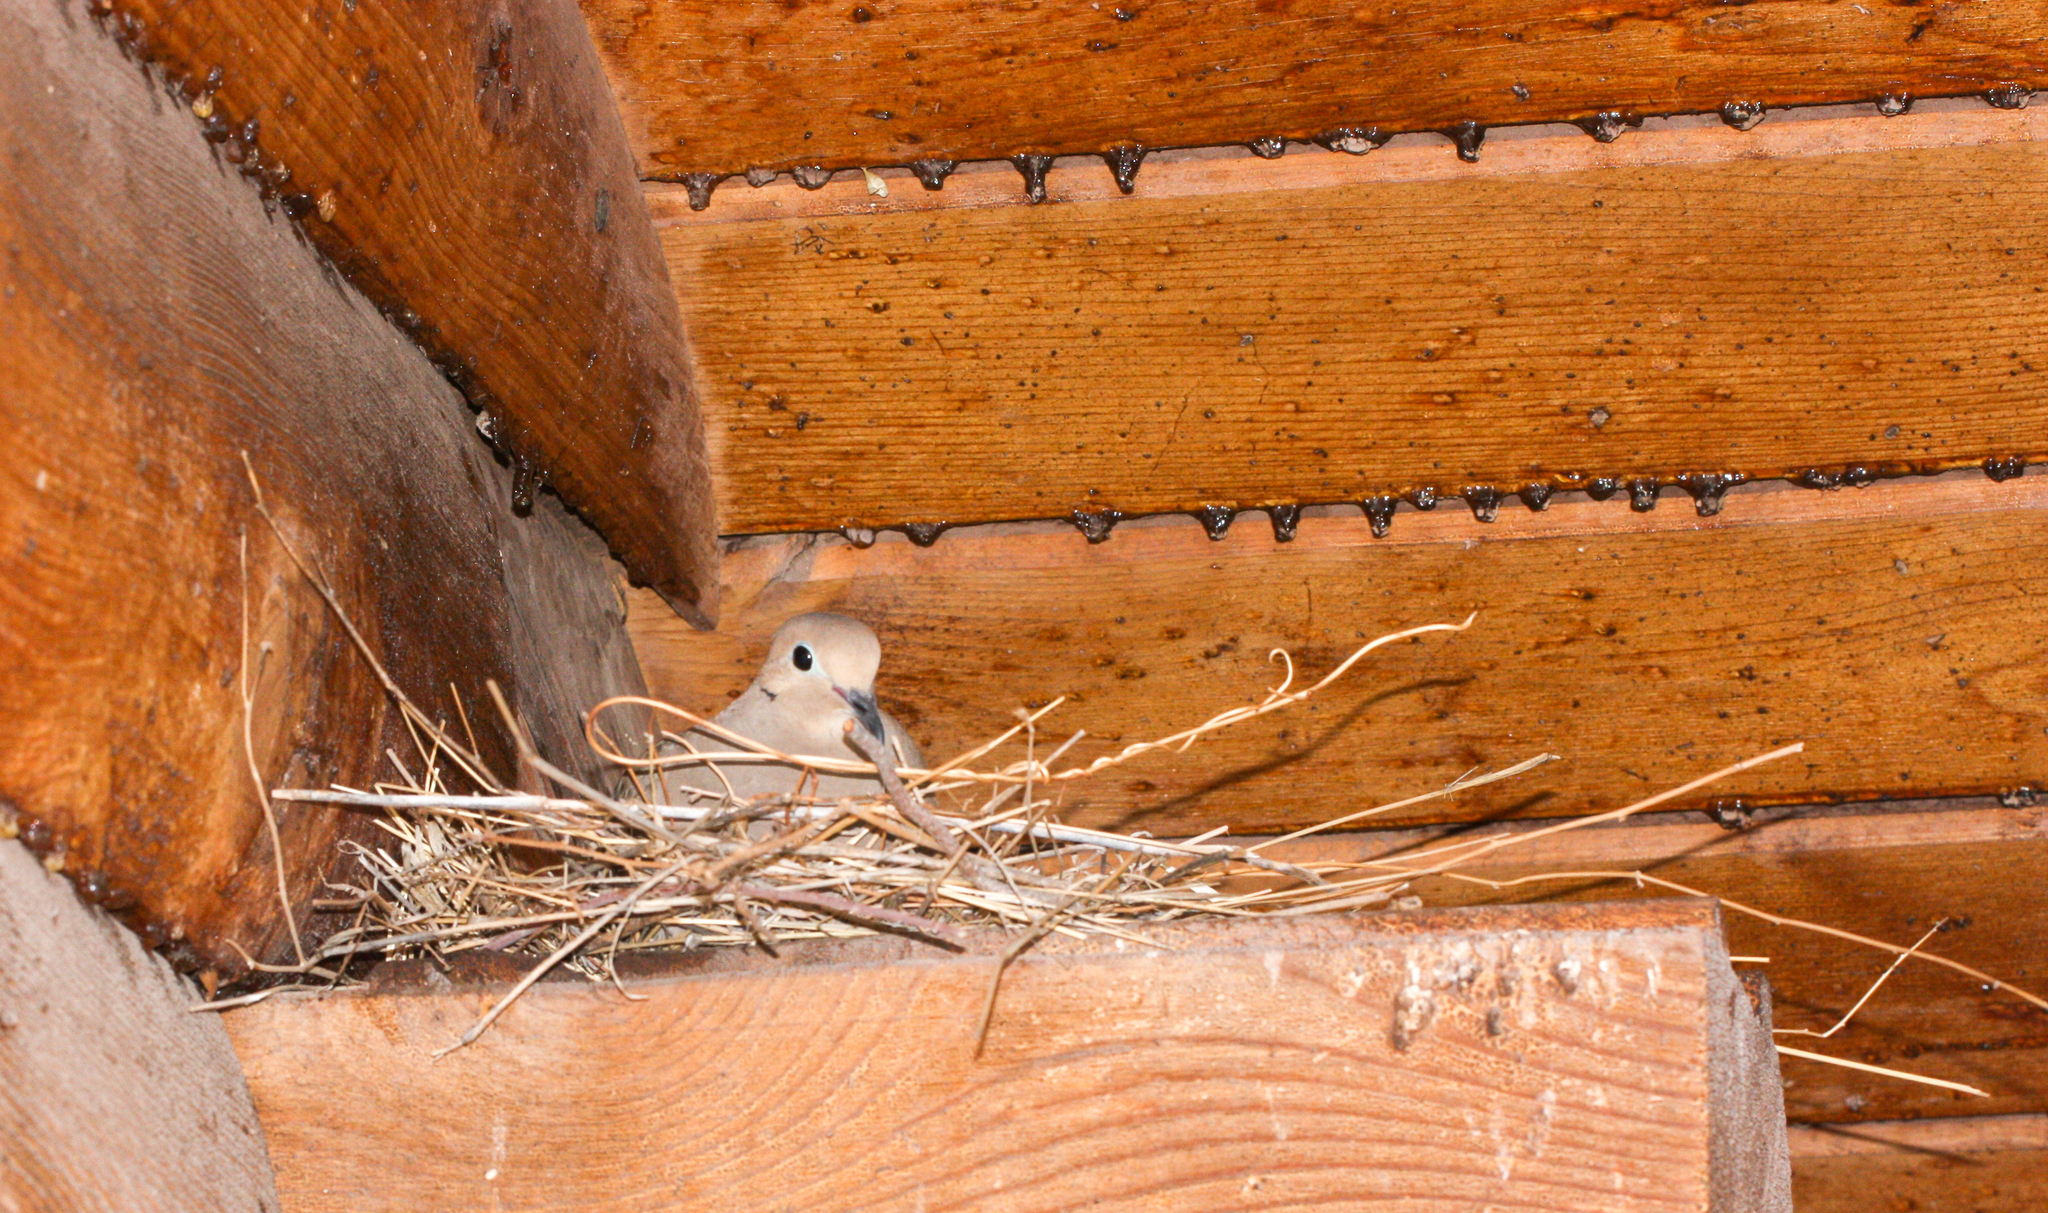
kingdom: Animalia
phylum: Chordata
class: Aves
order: Columbiformes
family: Columbidae
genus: Zenaida
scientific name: Zenaida macroura
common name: Mourning dove
